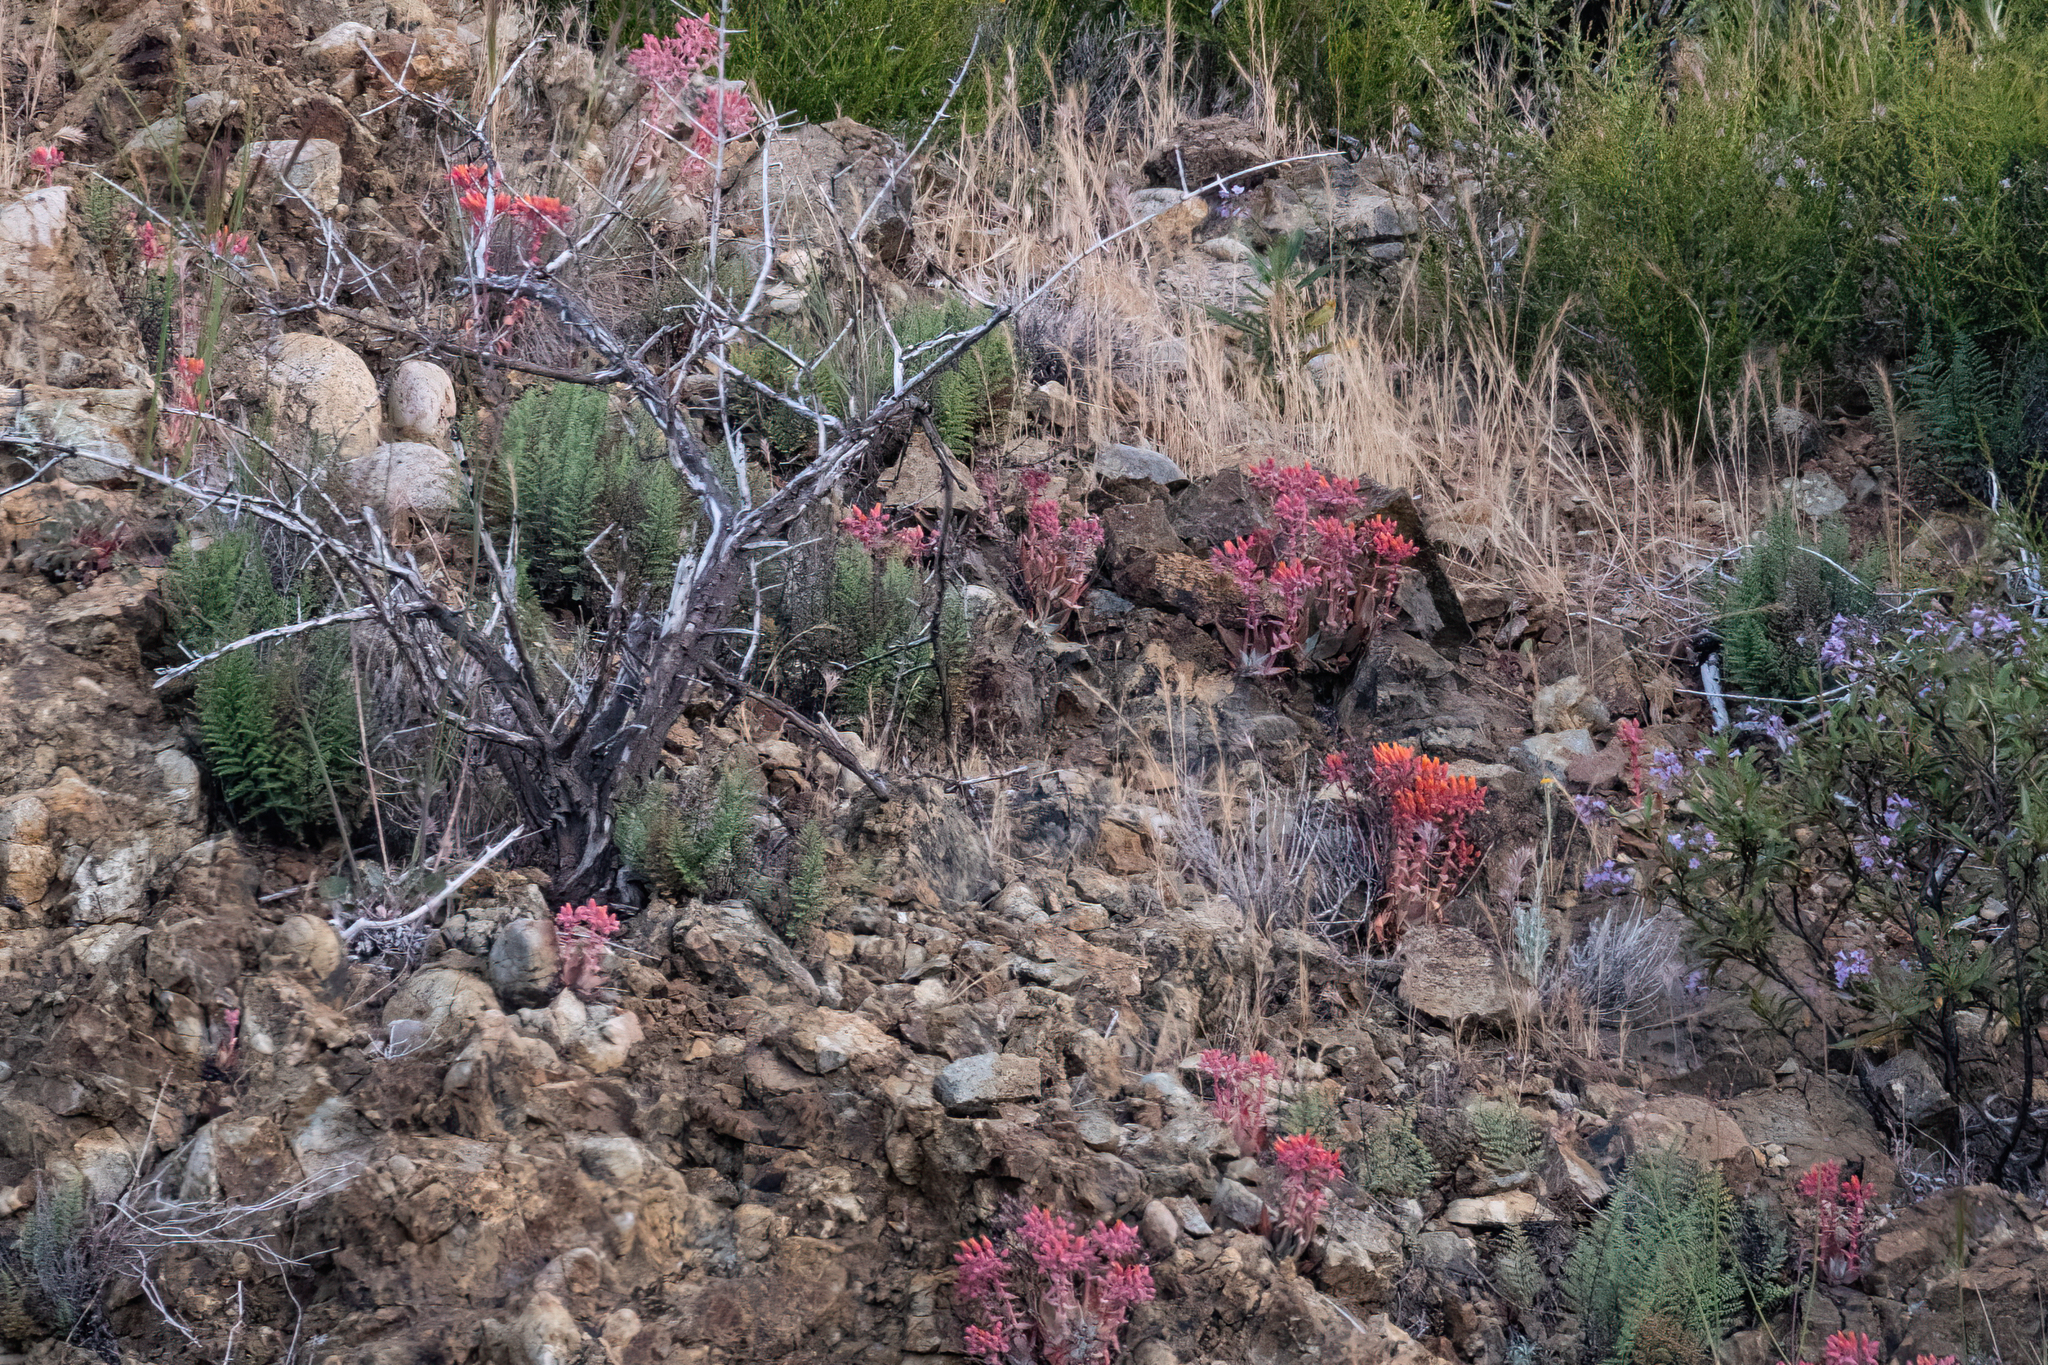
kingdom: Plantae
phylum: Tracheophyta
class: Magnoliopsida
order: Saxifragales
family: Crassulaceae
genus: Dudleya
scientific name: Dudleya cymosa
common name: Canyon dudleya
